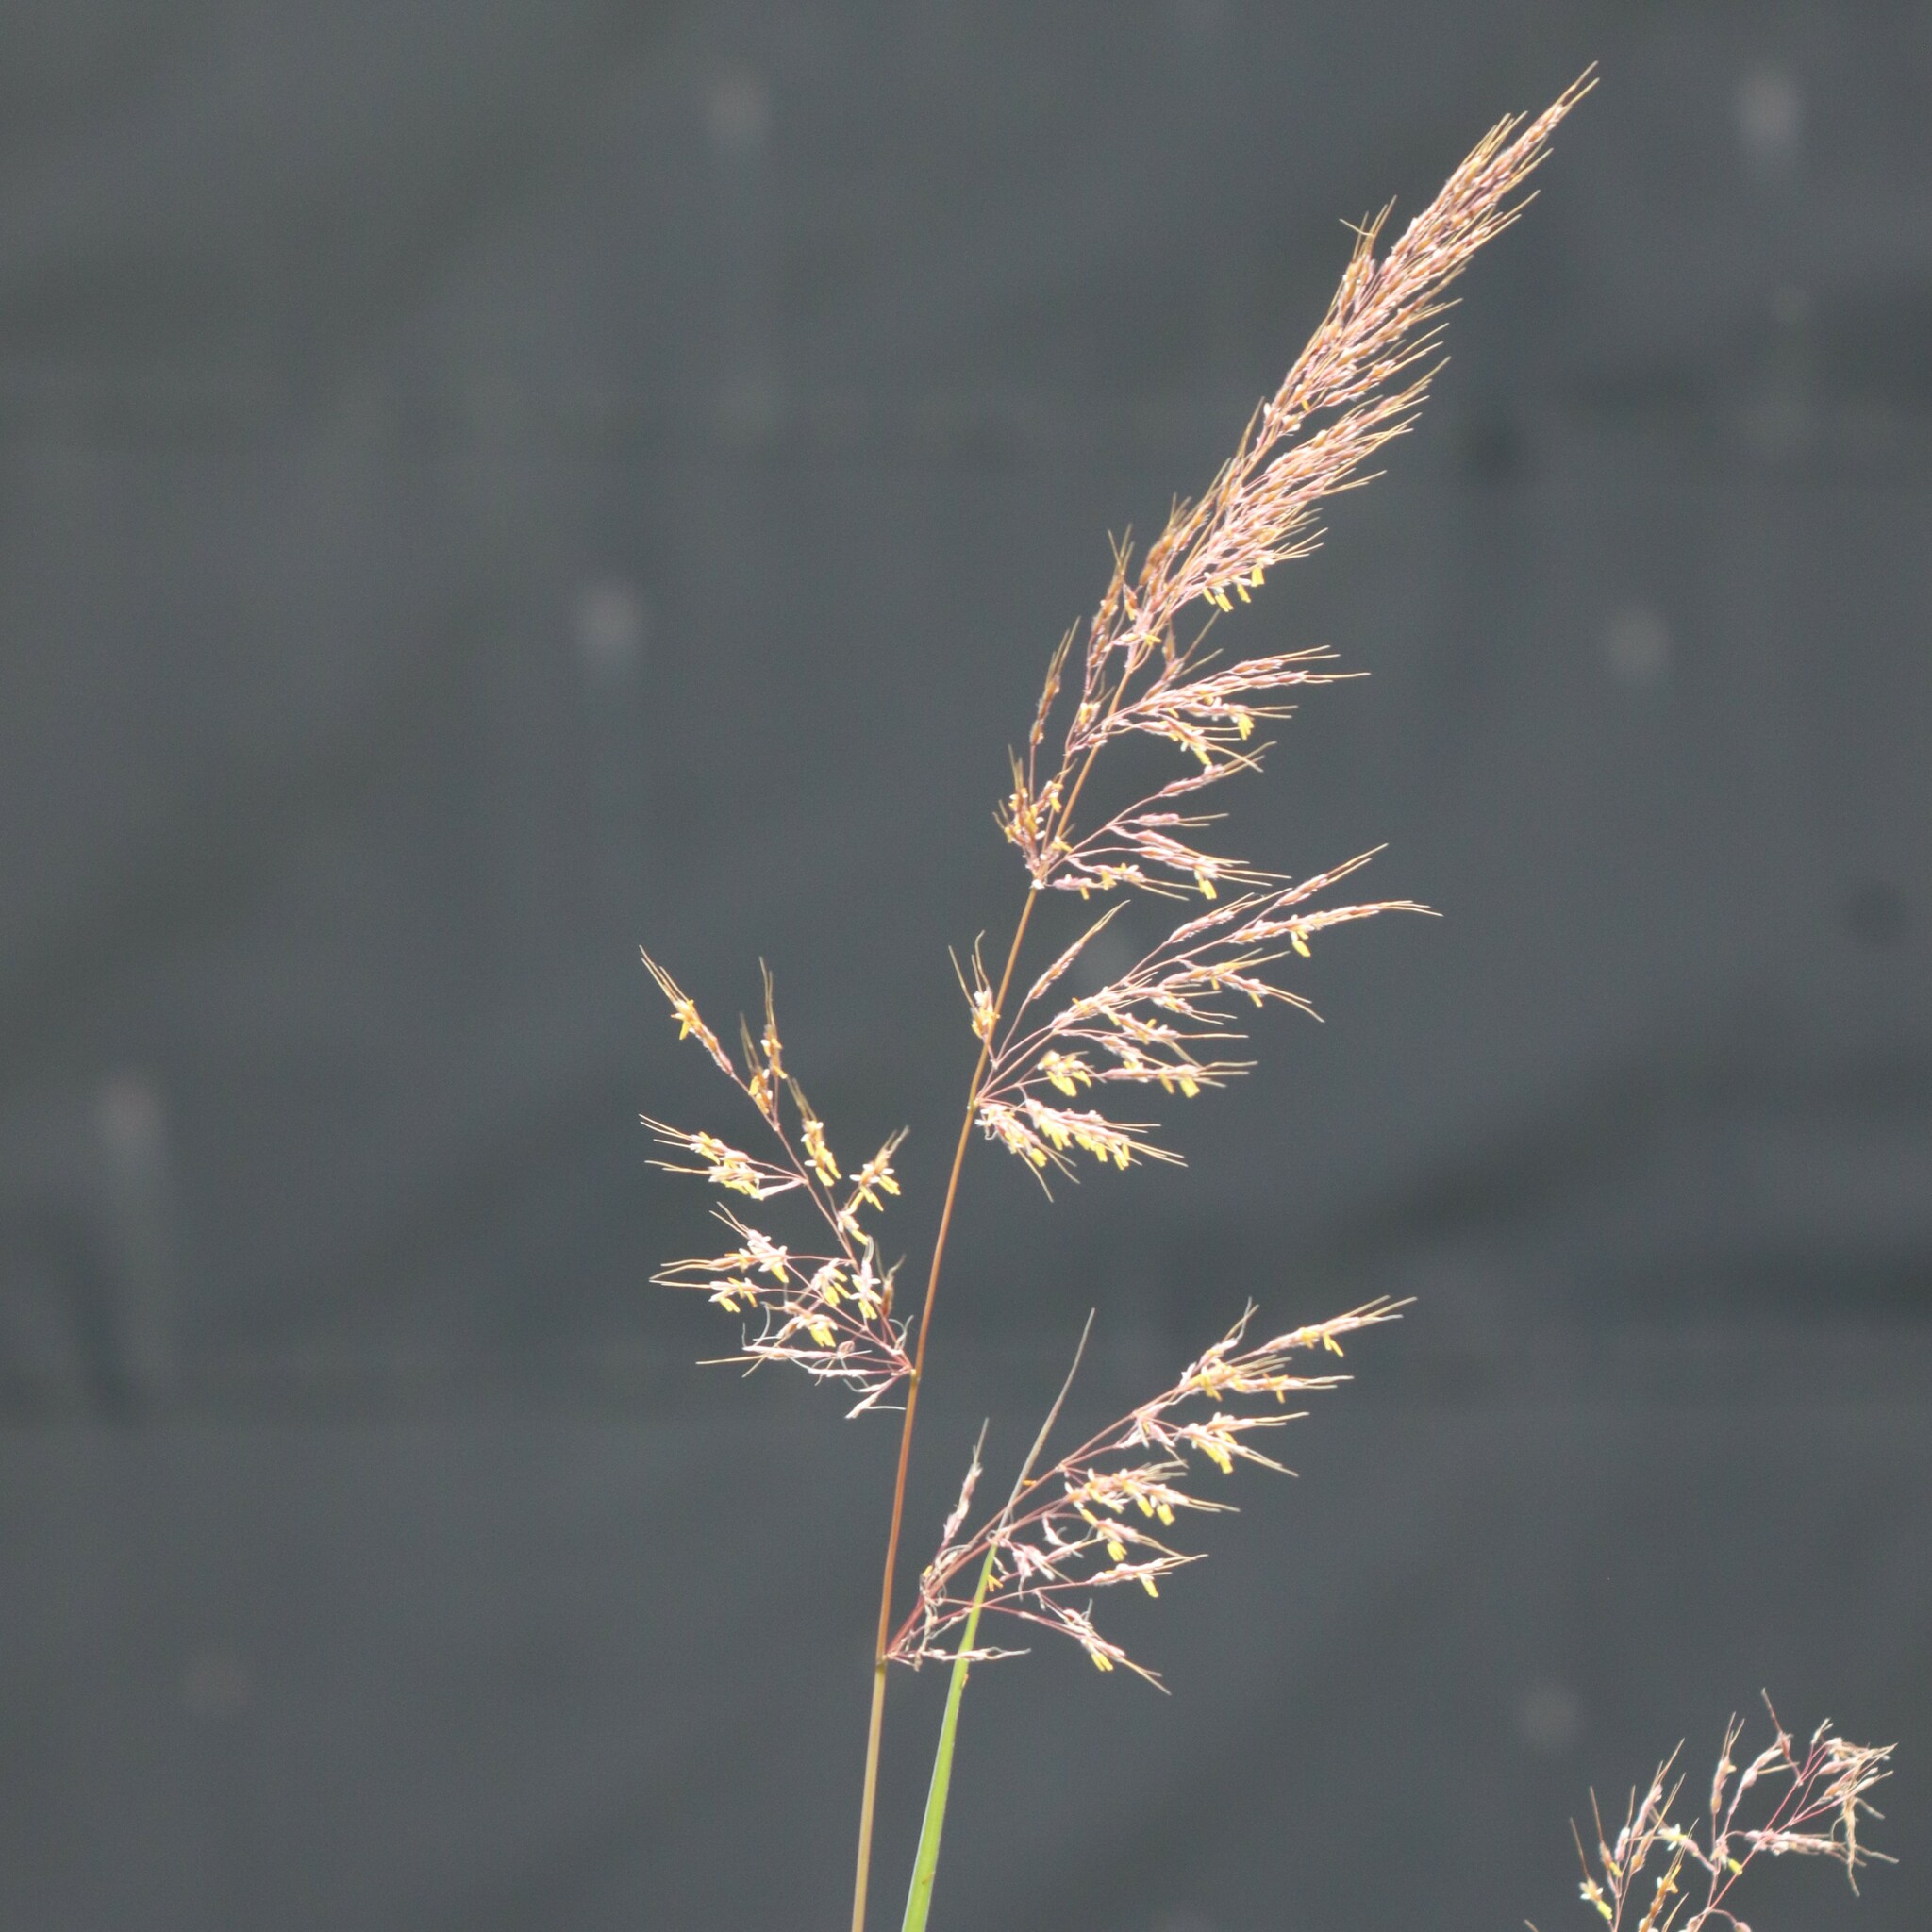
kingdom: Plantae
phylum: Tracheophyta
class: Liliopsida
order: Poales
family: Poaceae
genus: Sorghastrum
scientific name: Sorghastrum nutans
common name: Indian grass
